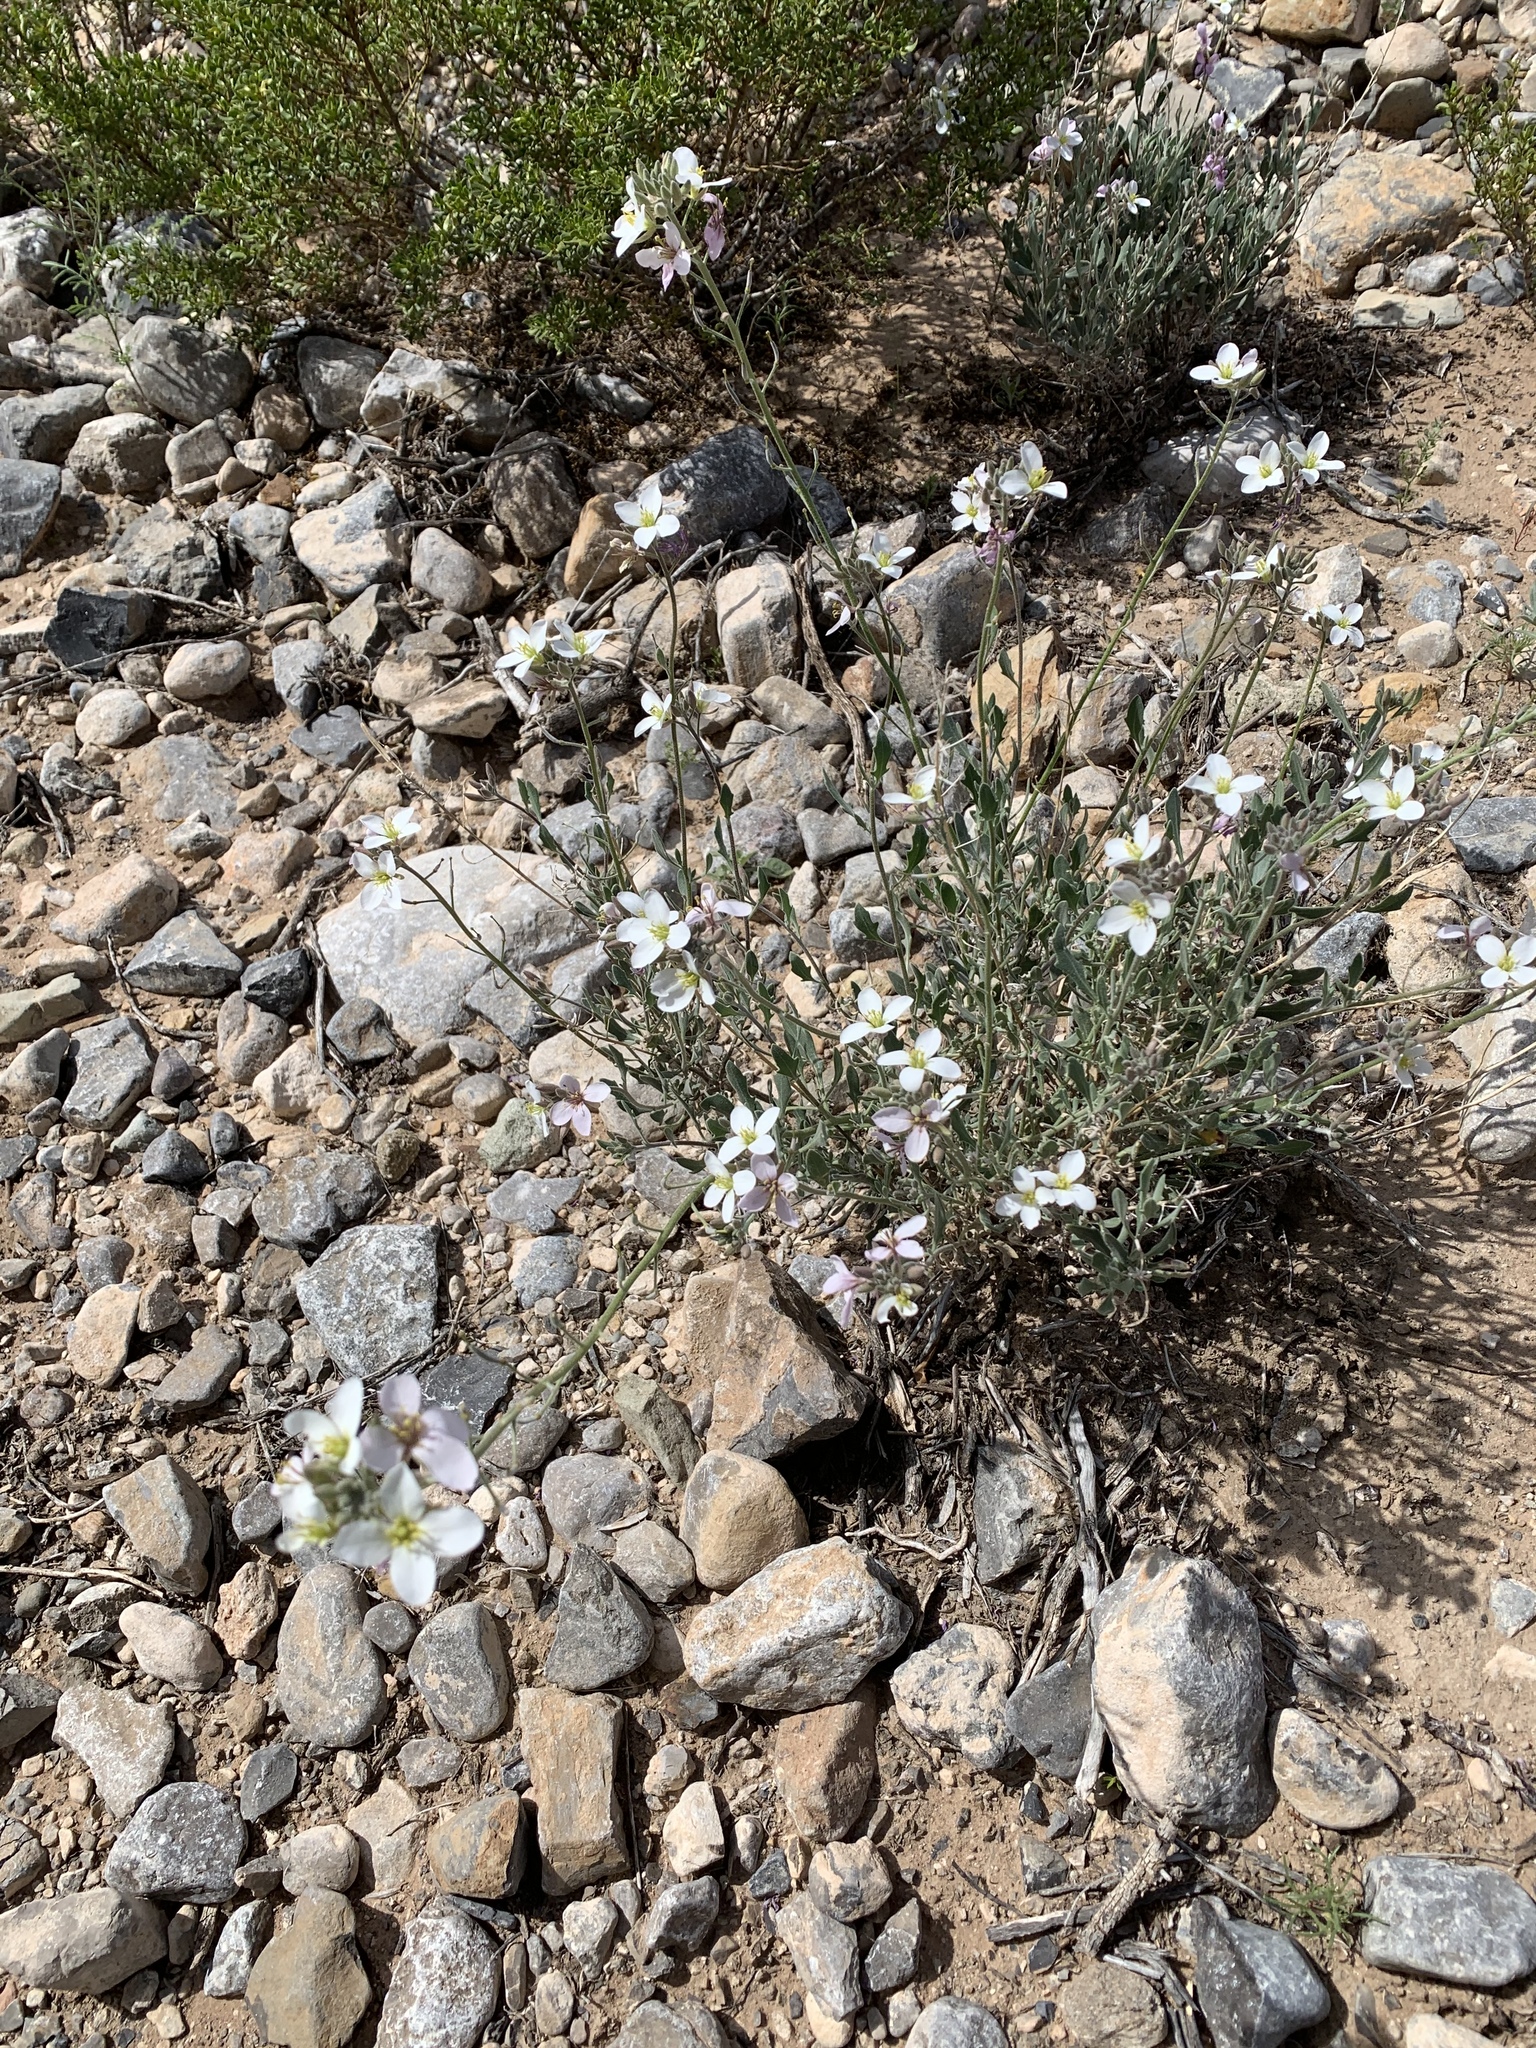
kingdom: Plantae
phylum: Tracheophyta
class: Magnoliopsida
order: Brassicales
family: Brassicaceae
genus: Nerisyrenia
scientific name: Nerisyrenia camporum
